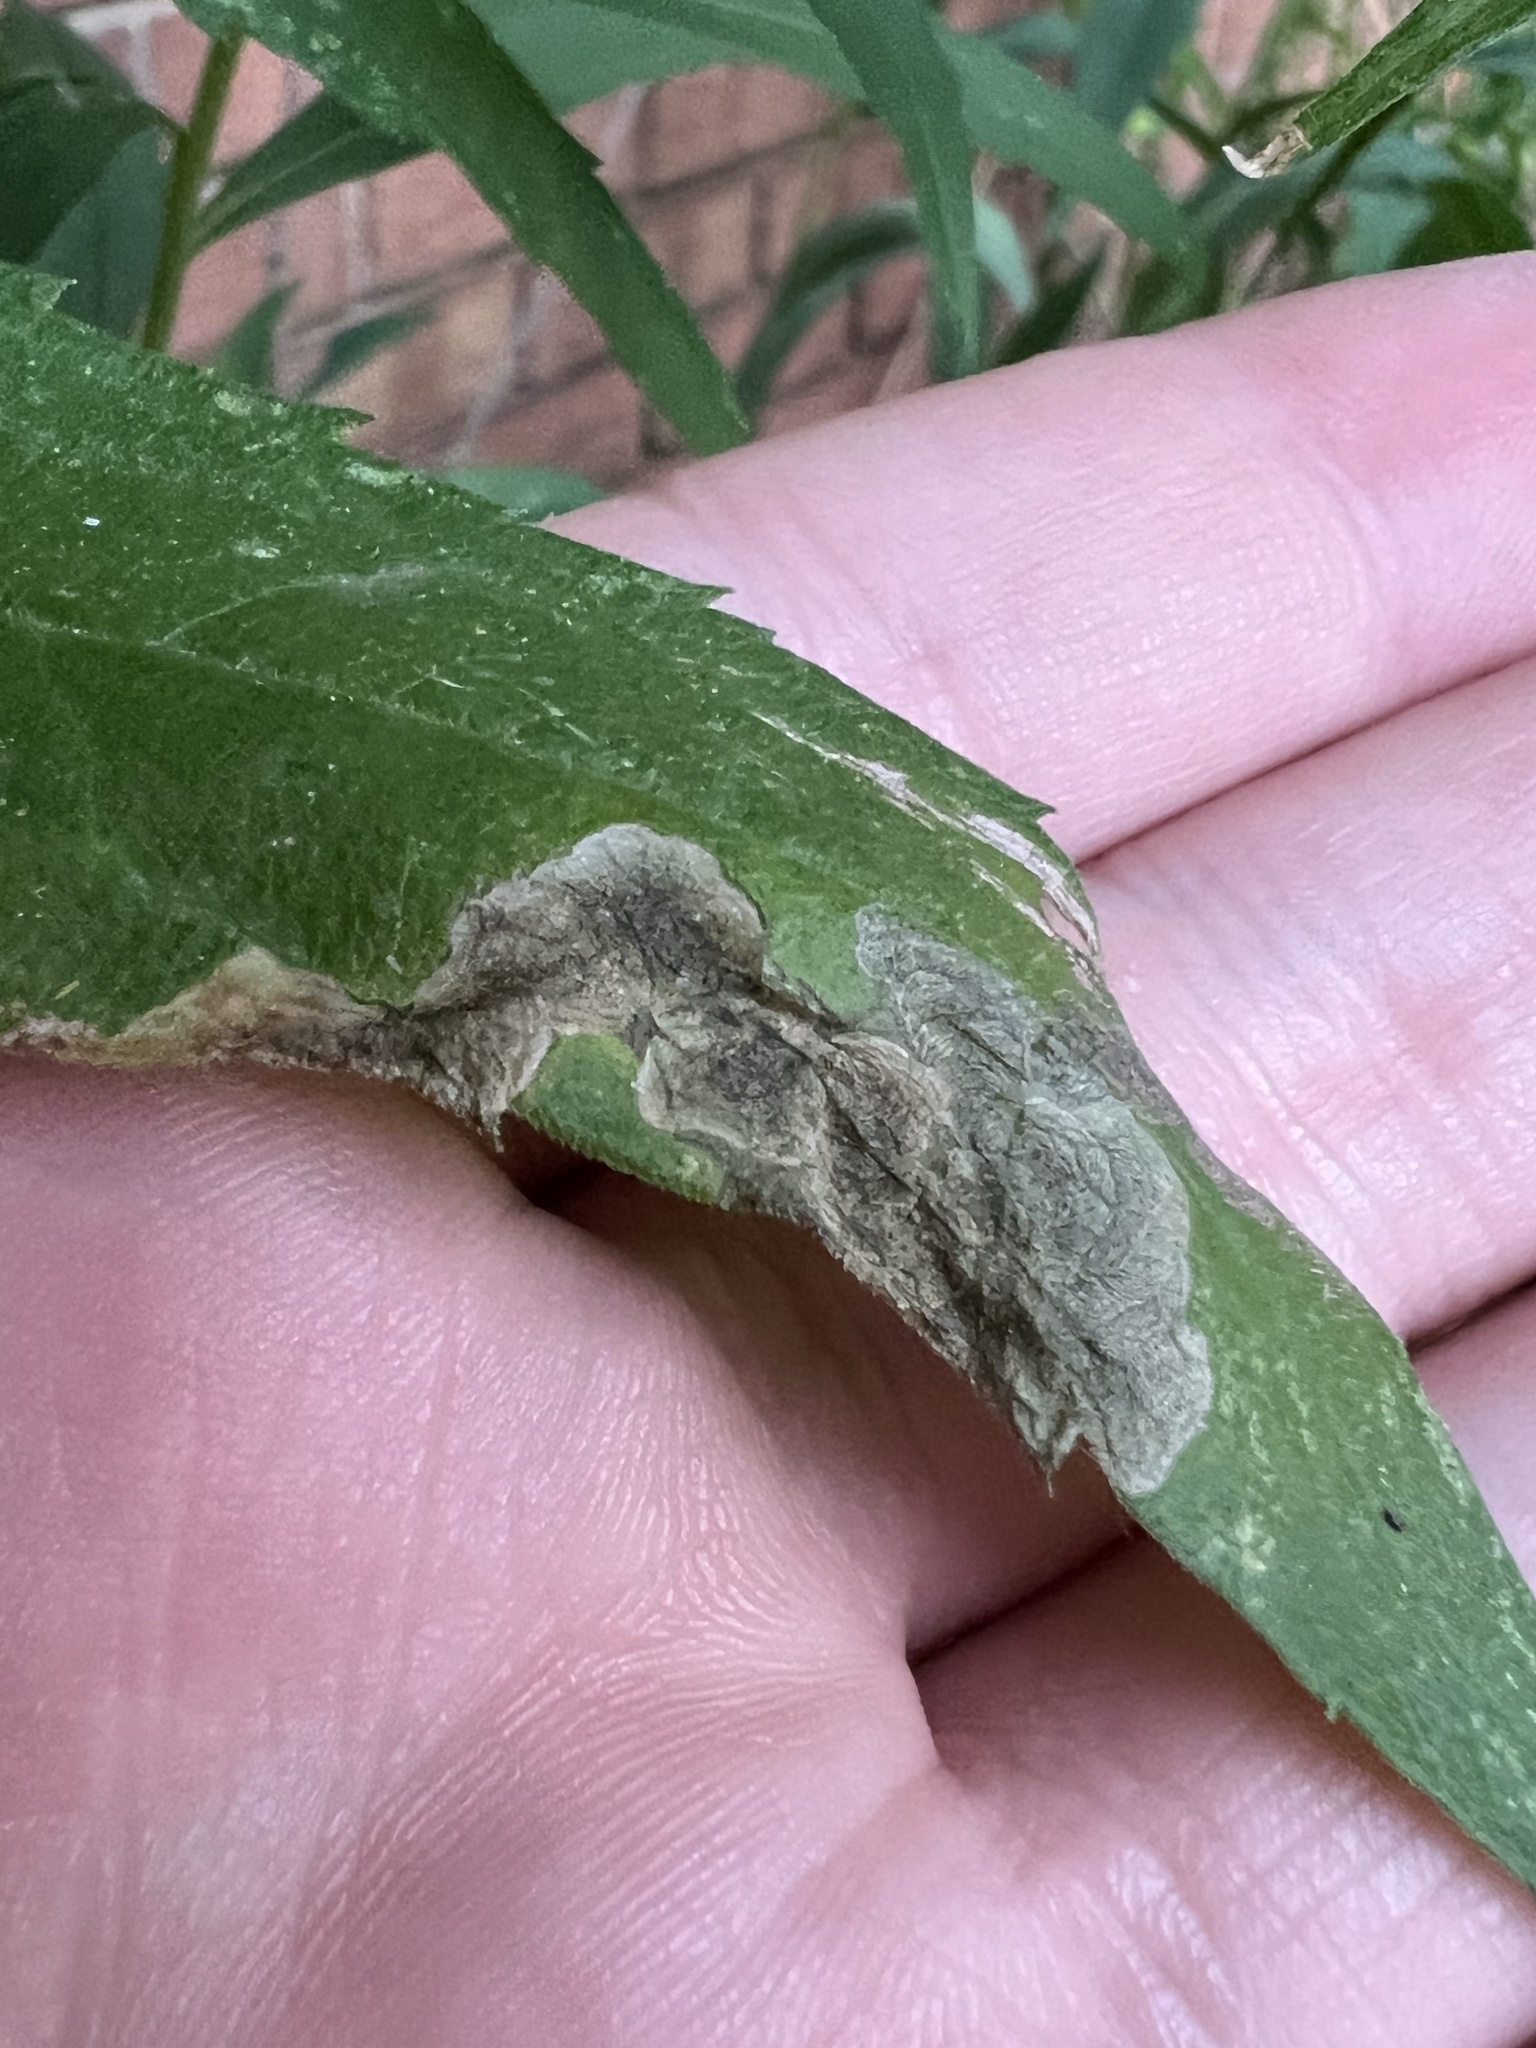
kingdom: Animalia
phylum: Arthropoda
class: Insecta
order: Diptera
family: Agromyzidae
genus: Nemorimyza
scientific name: Nemorimyza posticata
